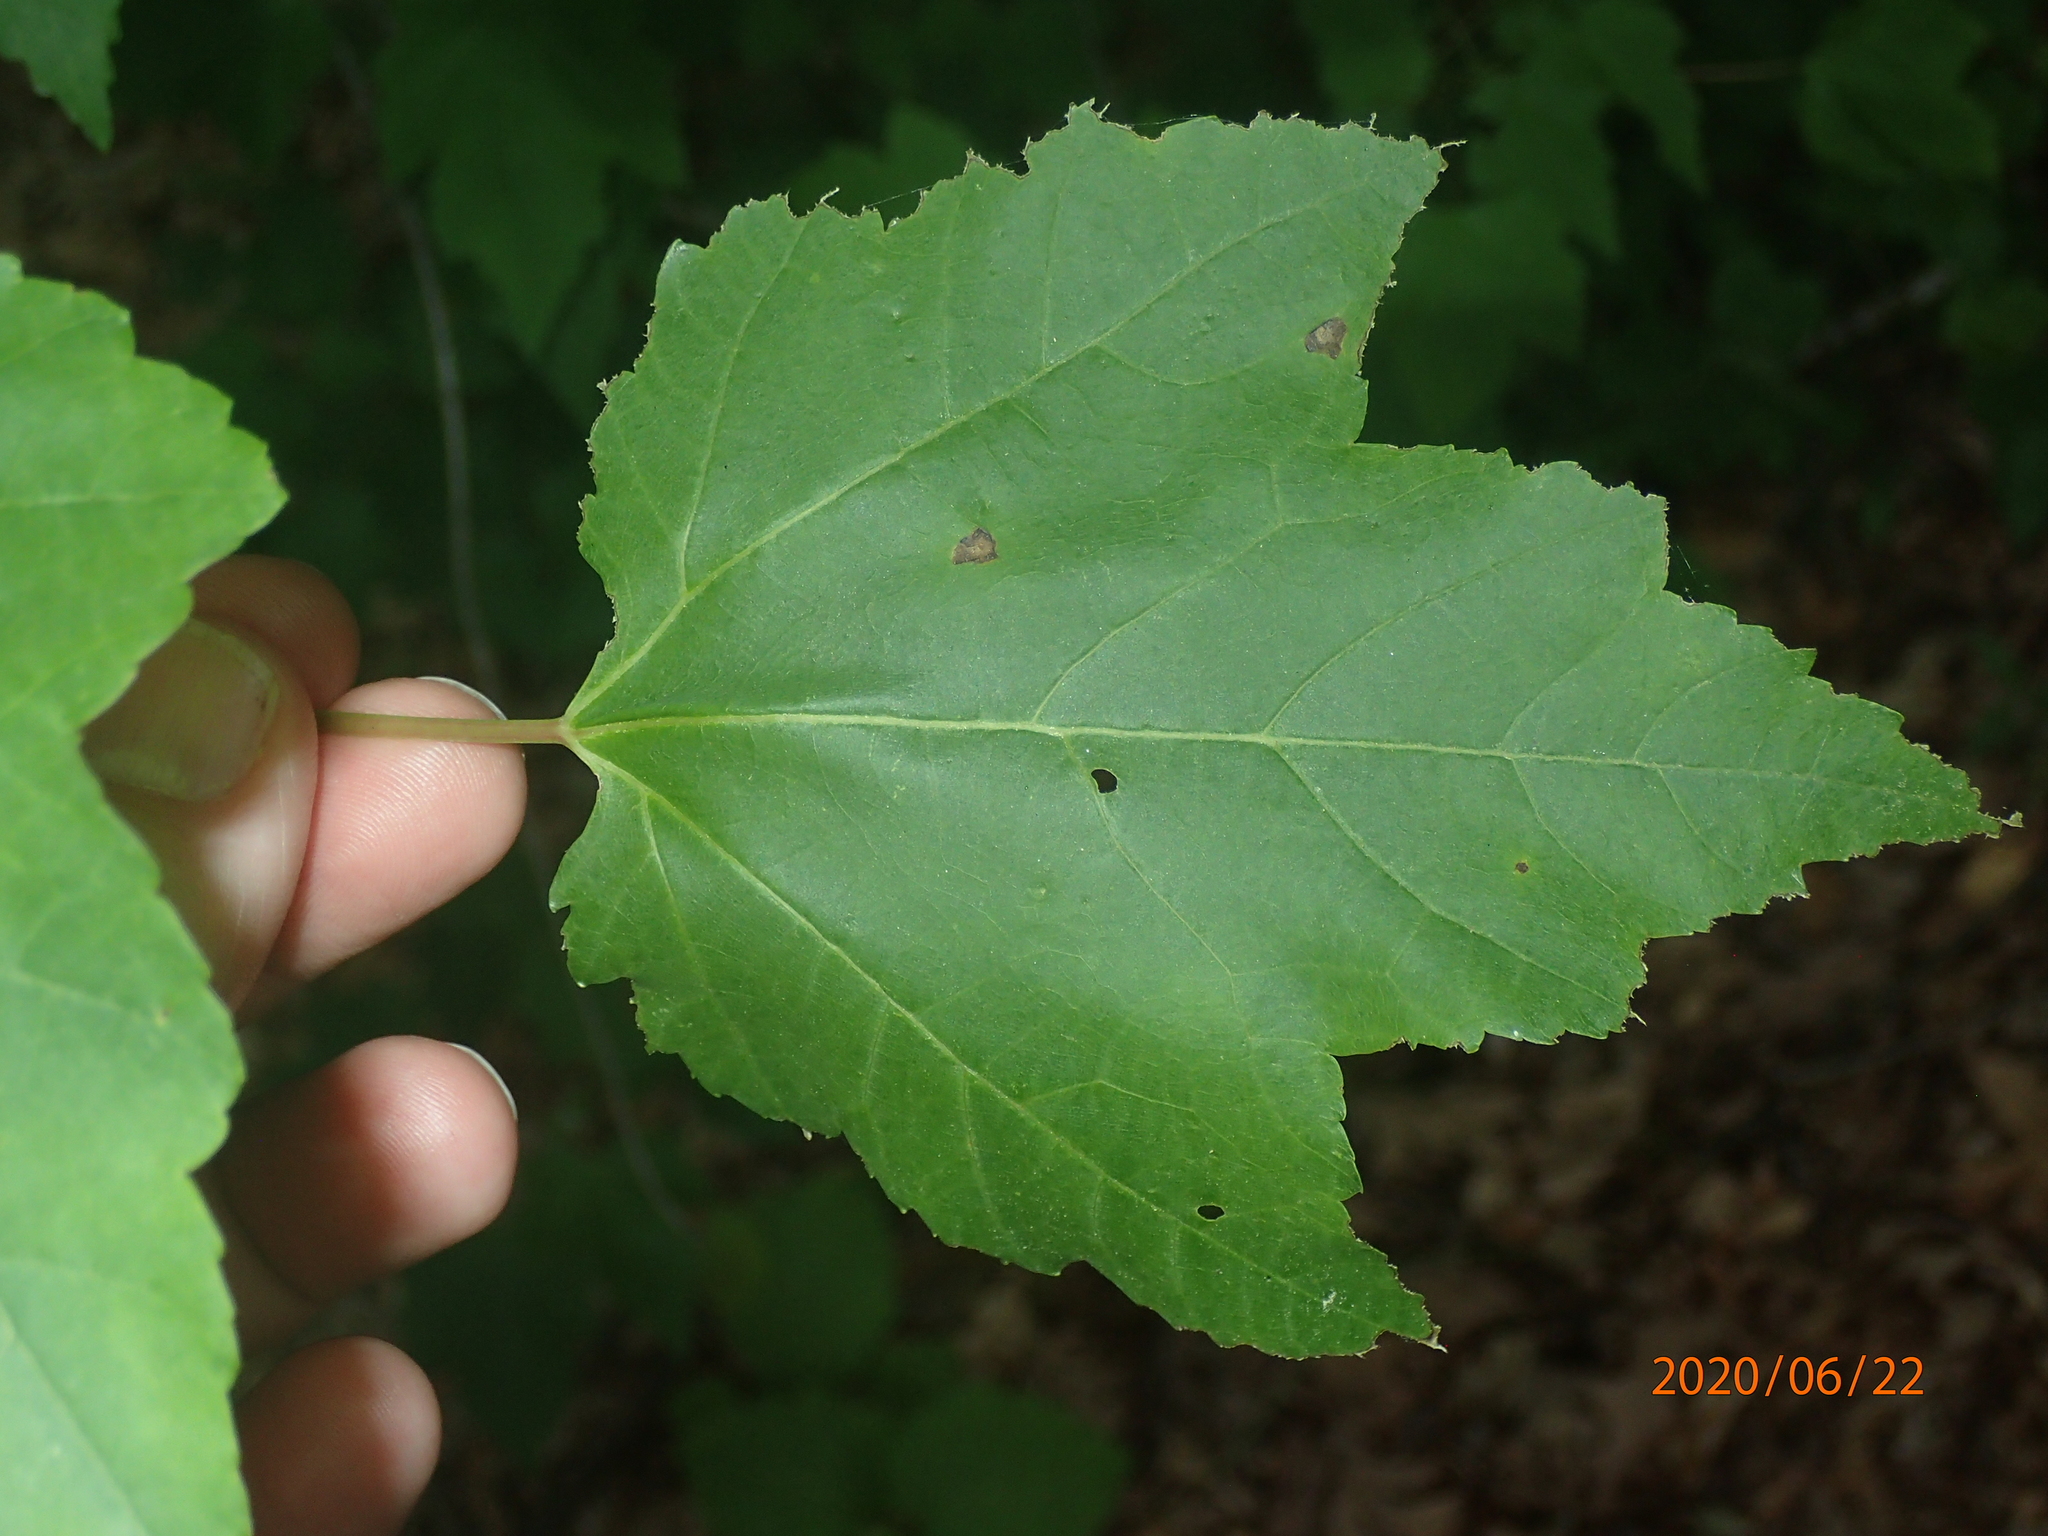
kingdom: Plantae
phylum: Tracheophyta
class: Magnoliopsida
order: Sapindales
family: Sapindaceae
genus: Acer
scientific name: Acer rubrum
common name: Red maple
